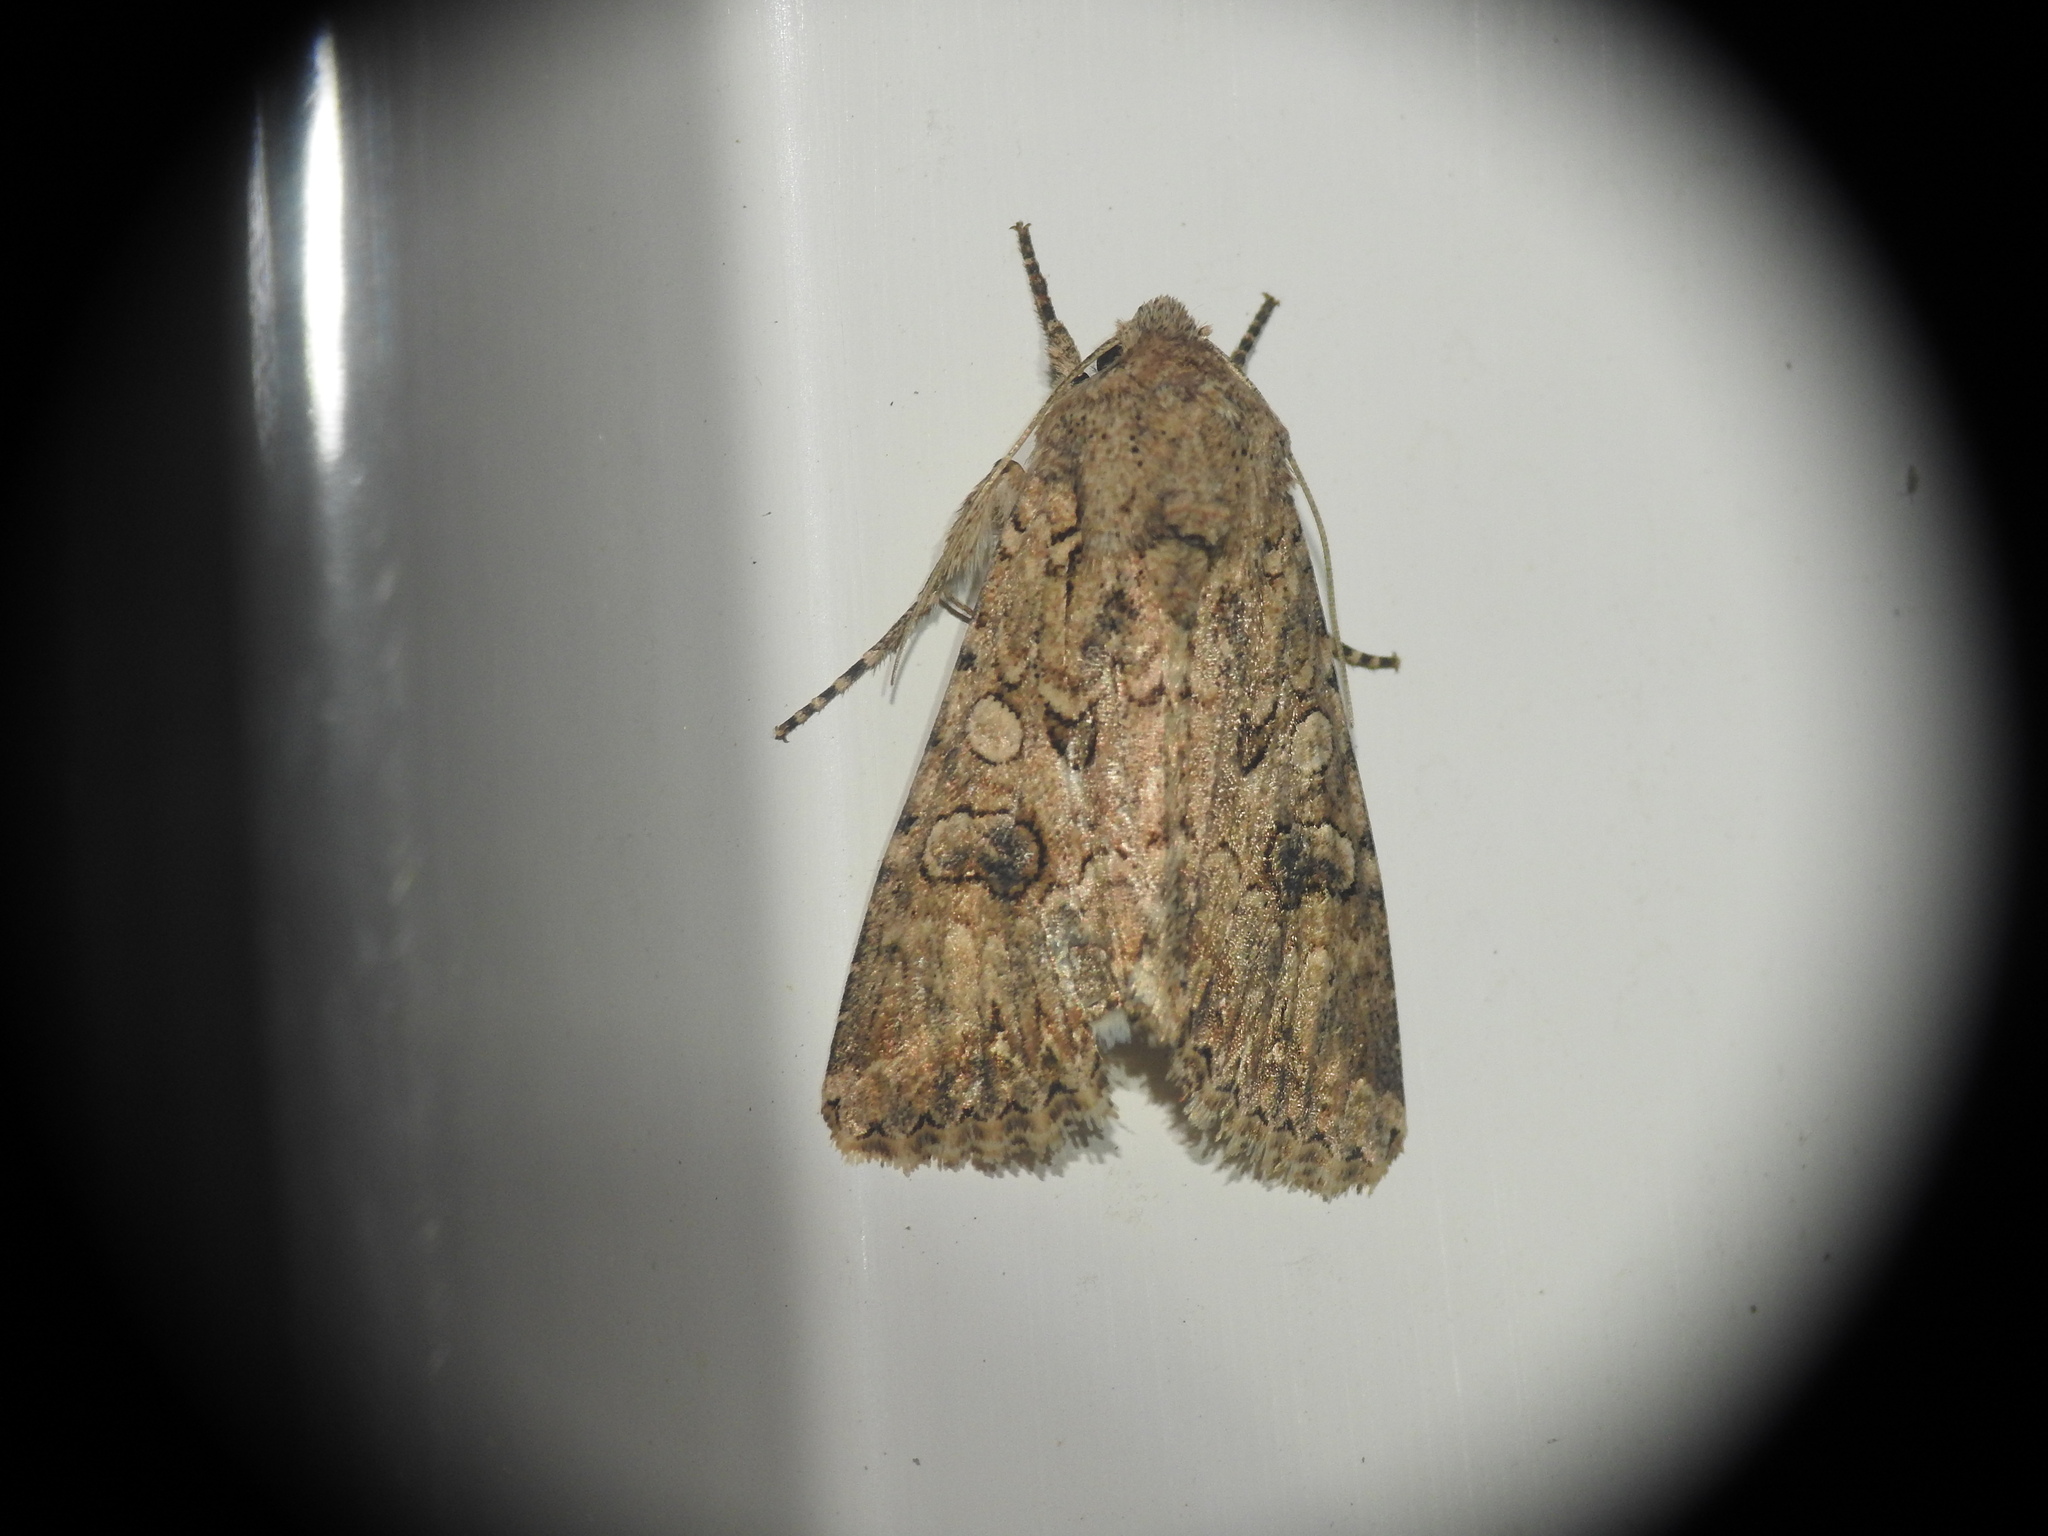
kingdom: Animalia
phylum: Arthropoda
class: Insecta
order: Lepidoptera
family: Noctuidae
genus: Anarta
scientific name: Anarta trifolii
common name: Clover cutworm moth
